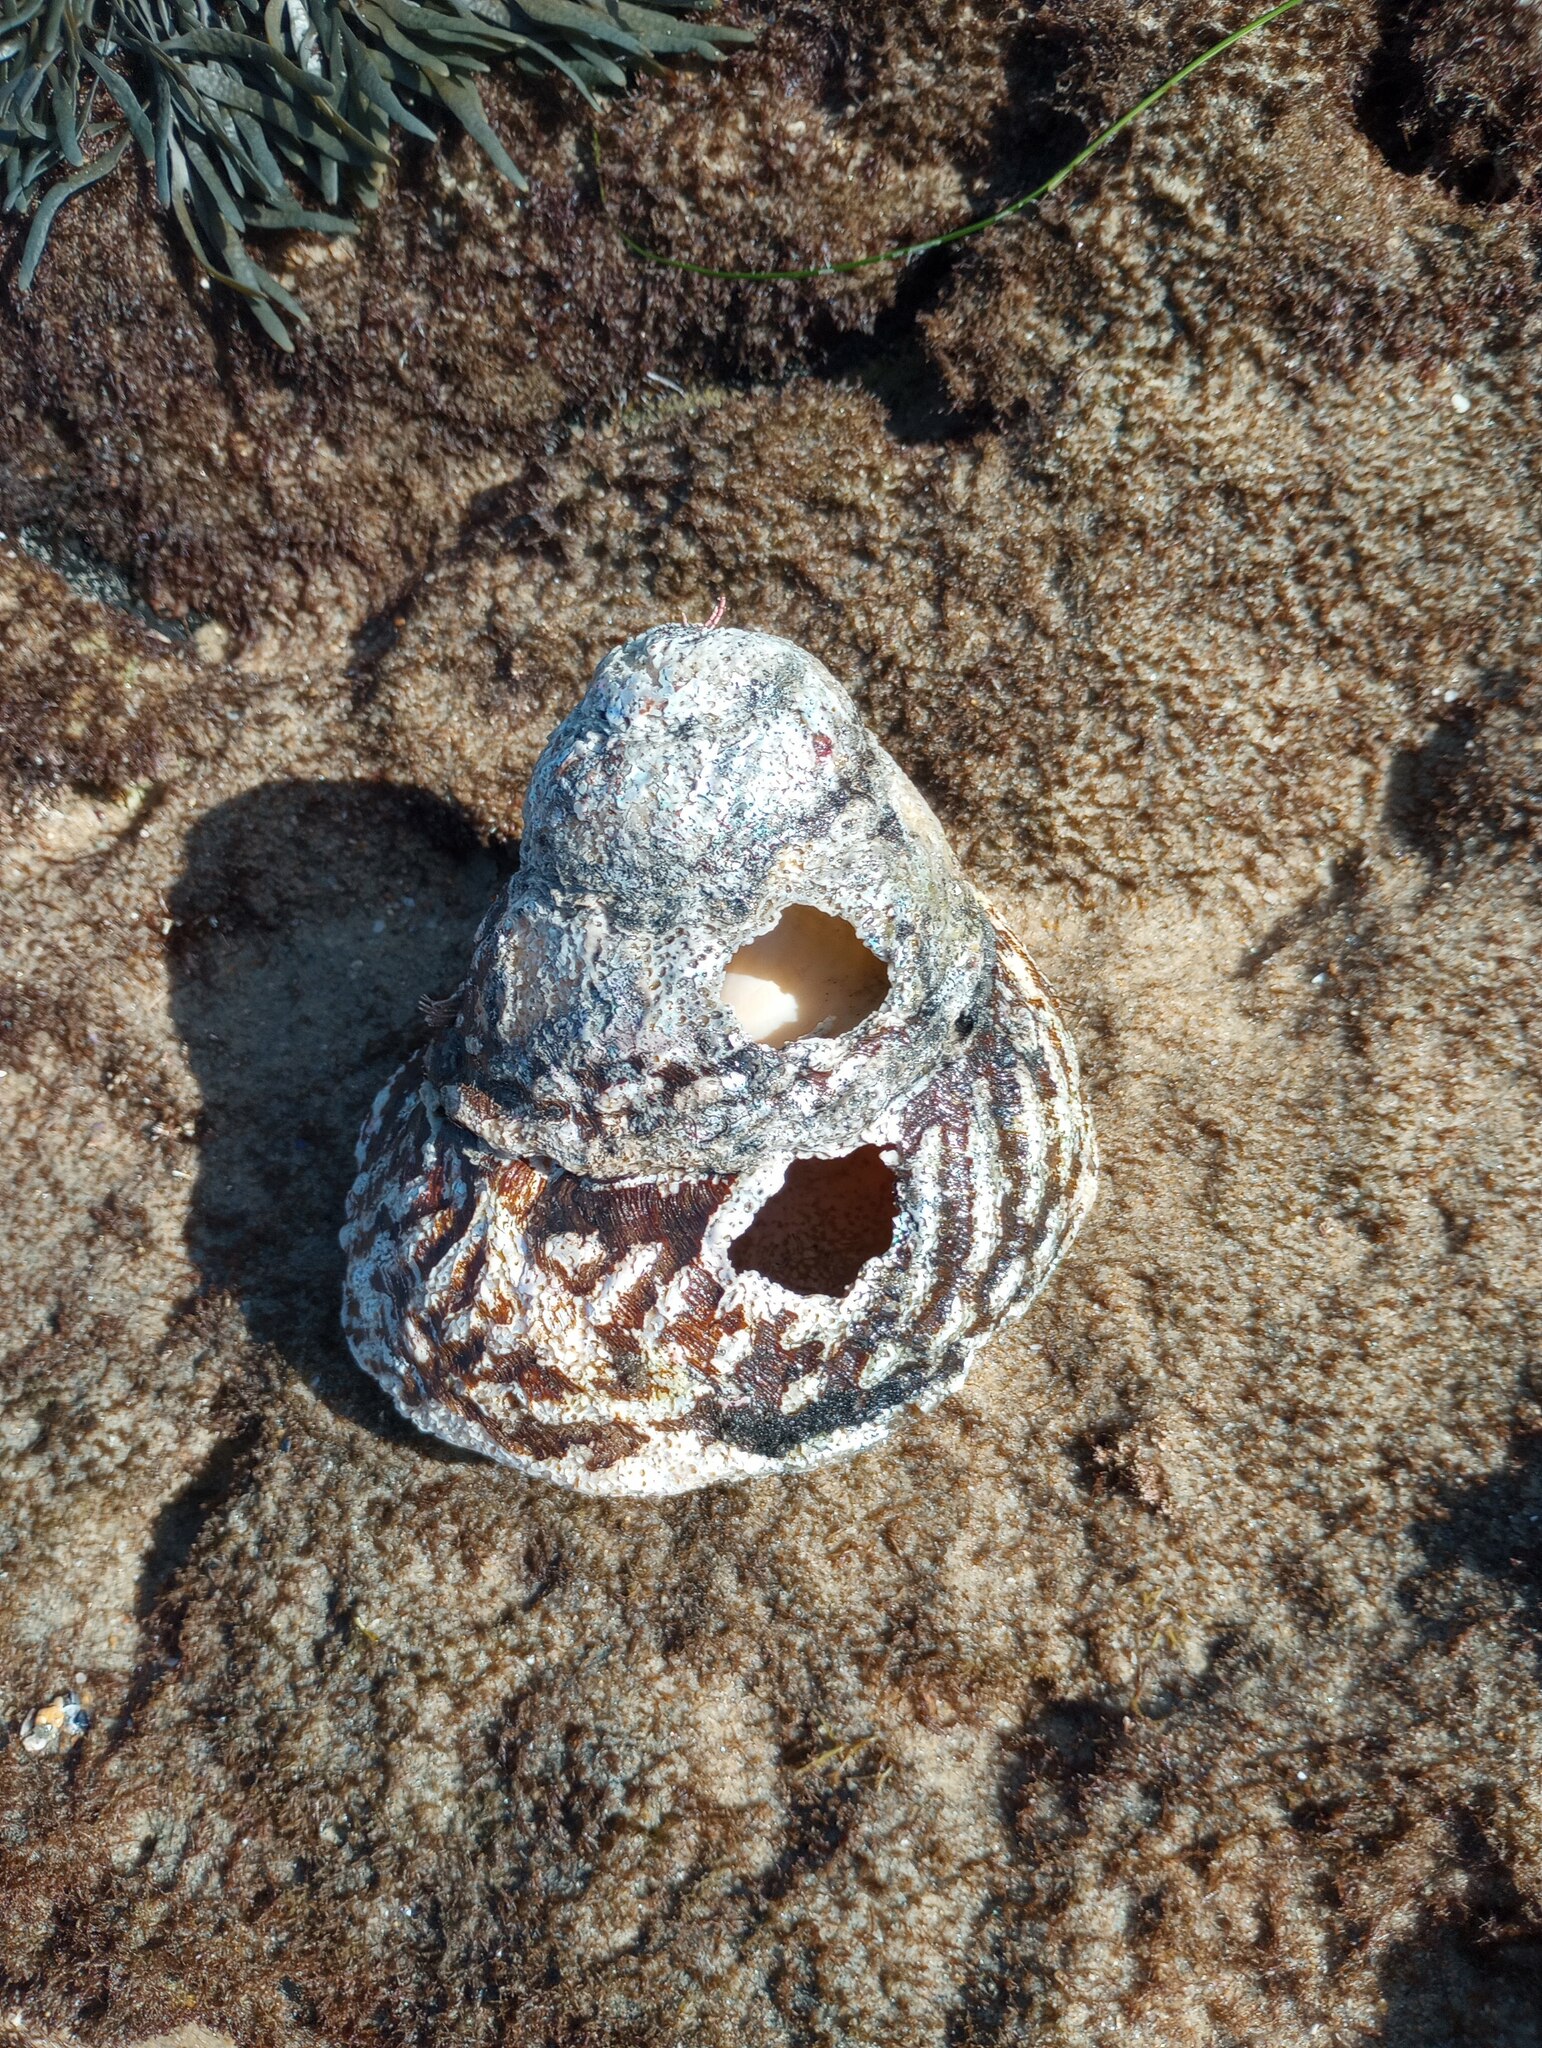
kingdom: Animalia
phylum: Mollusca
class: Gastropoda
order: Trochida
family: Turbinidae
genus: Megastraea
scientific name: Megastraea undosa
